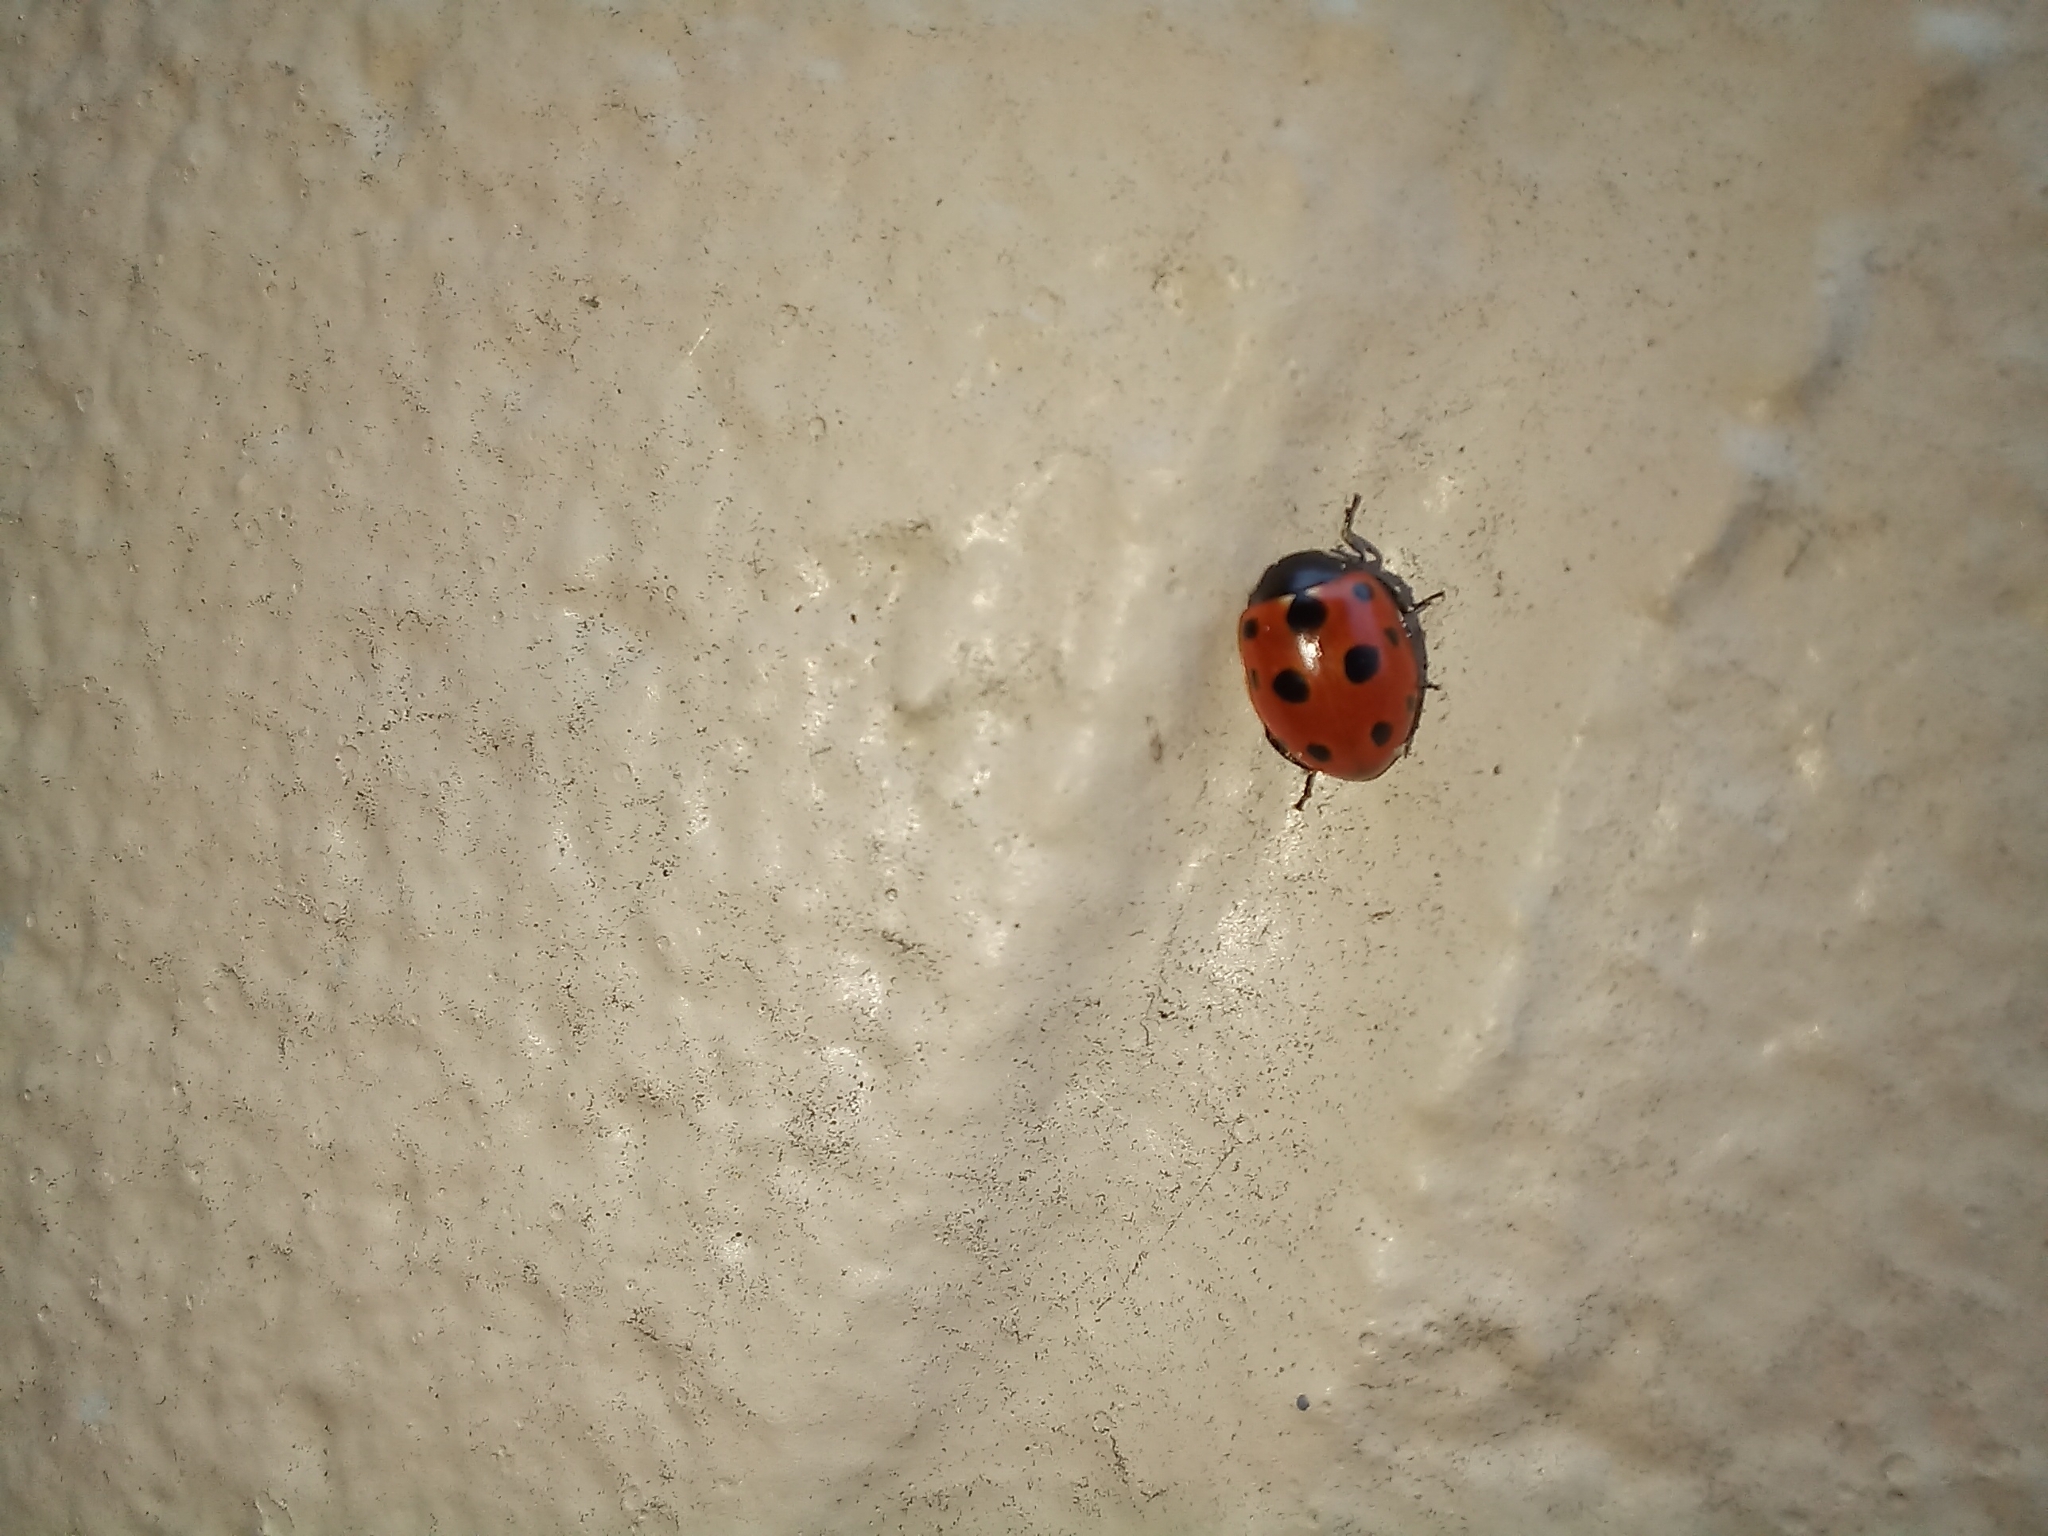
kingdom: Animalia
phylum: Arthropoda
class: Insecta
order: Coleoptera
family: Coccinellidae
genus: Coccinella
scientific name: Coccinella undecimpunctata
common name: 11-spot ladybird
